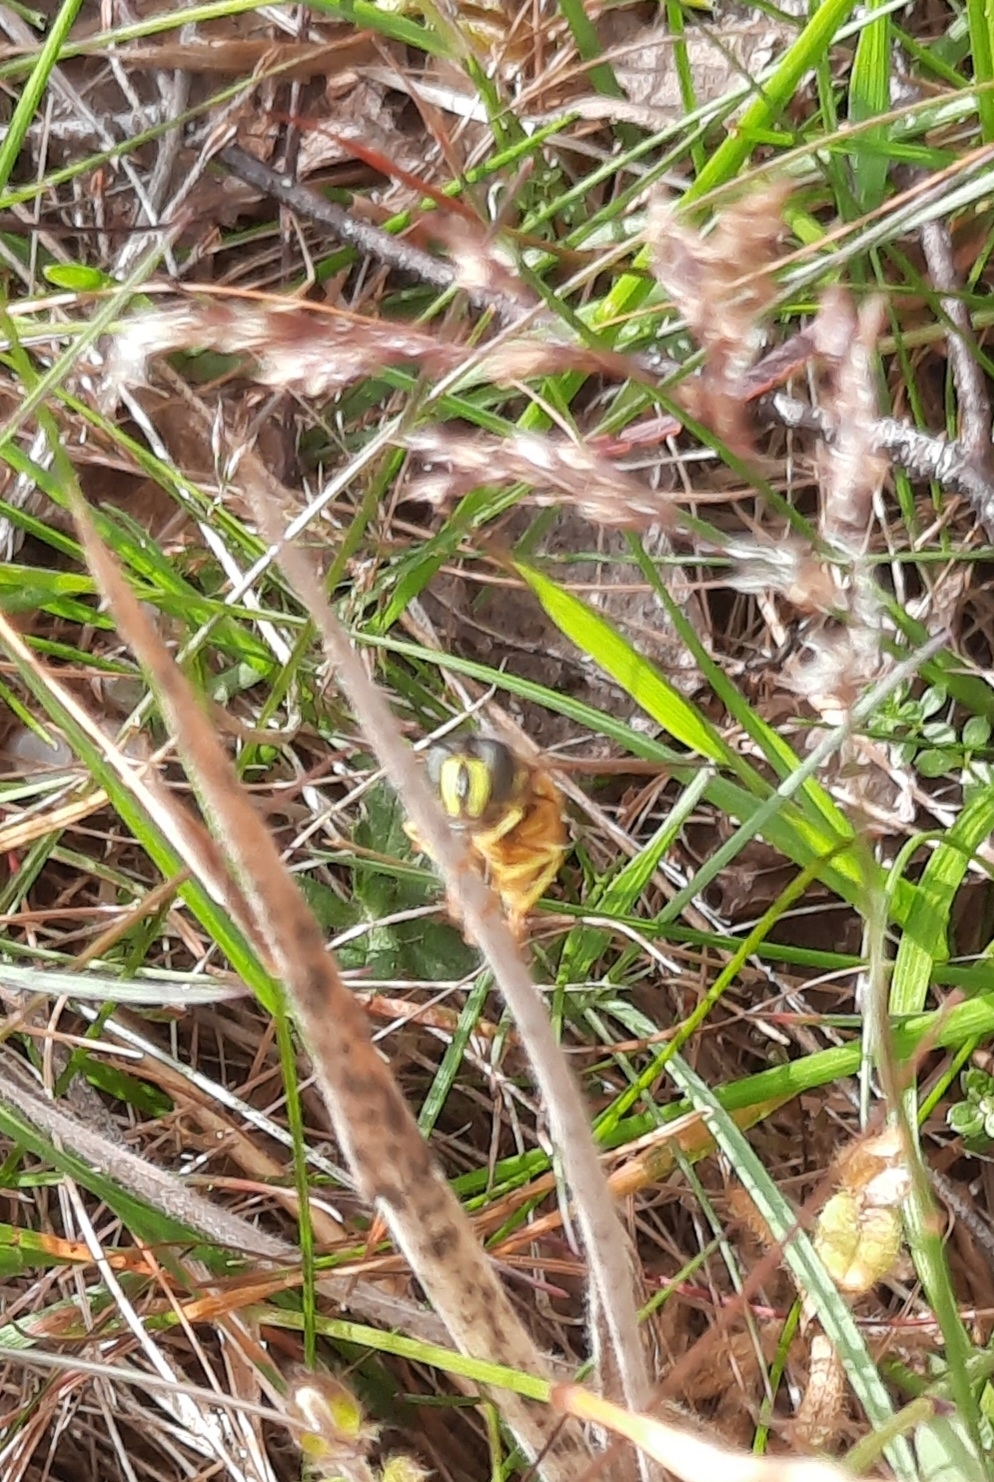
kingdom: Animalia
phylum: Arthropoda
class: Insecta
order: Diptera
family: Syrphidae
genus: Chrysotoxum
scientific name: Chrysotoxum arcuatum
